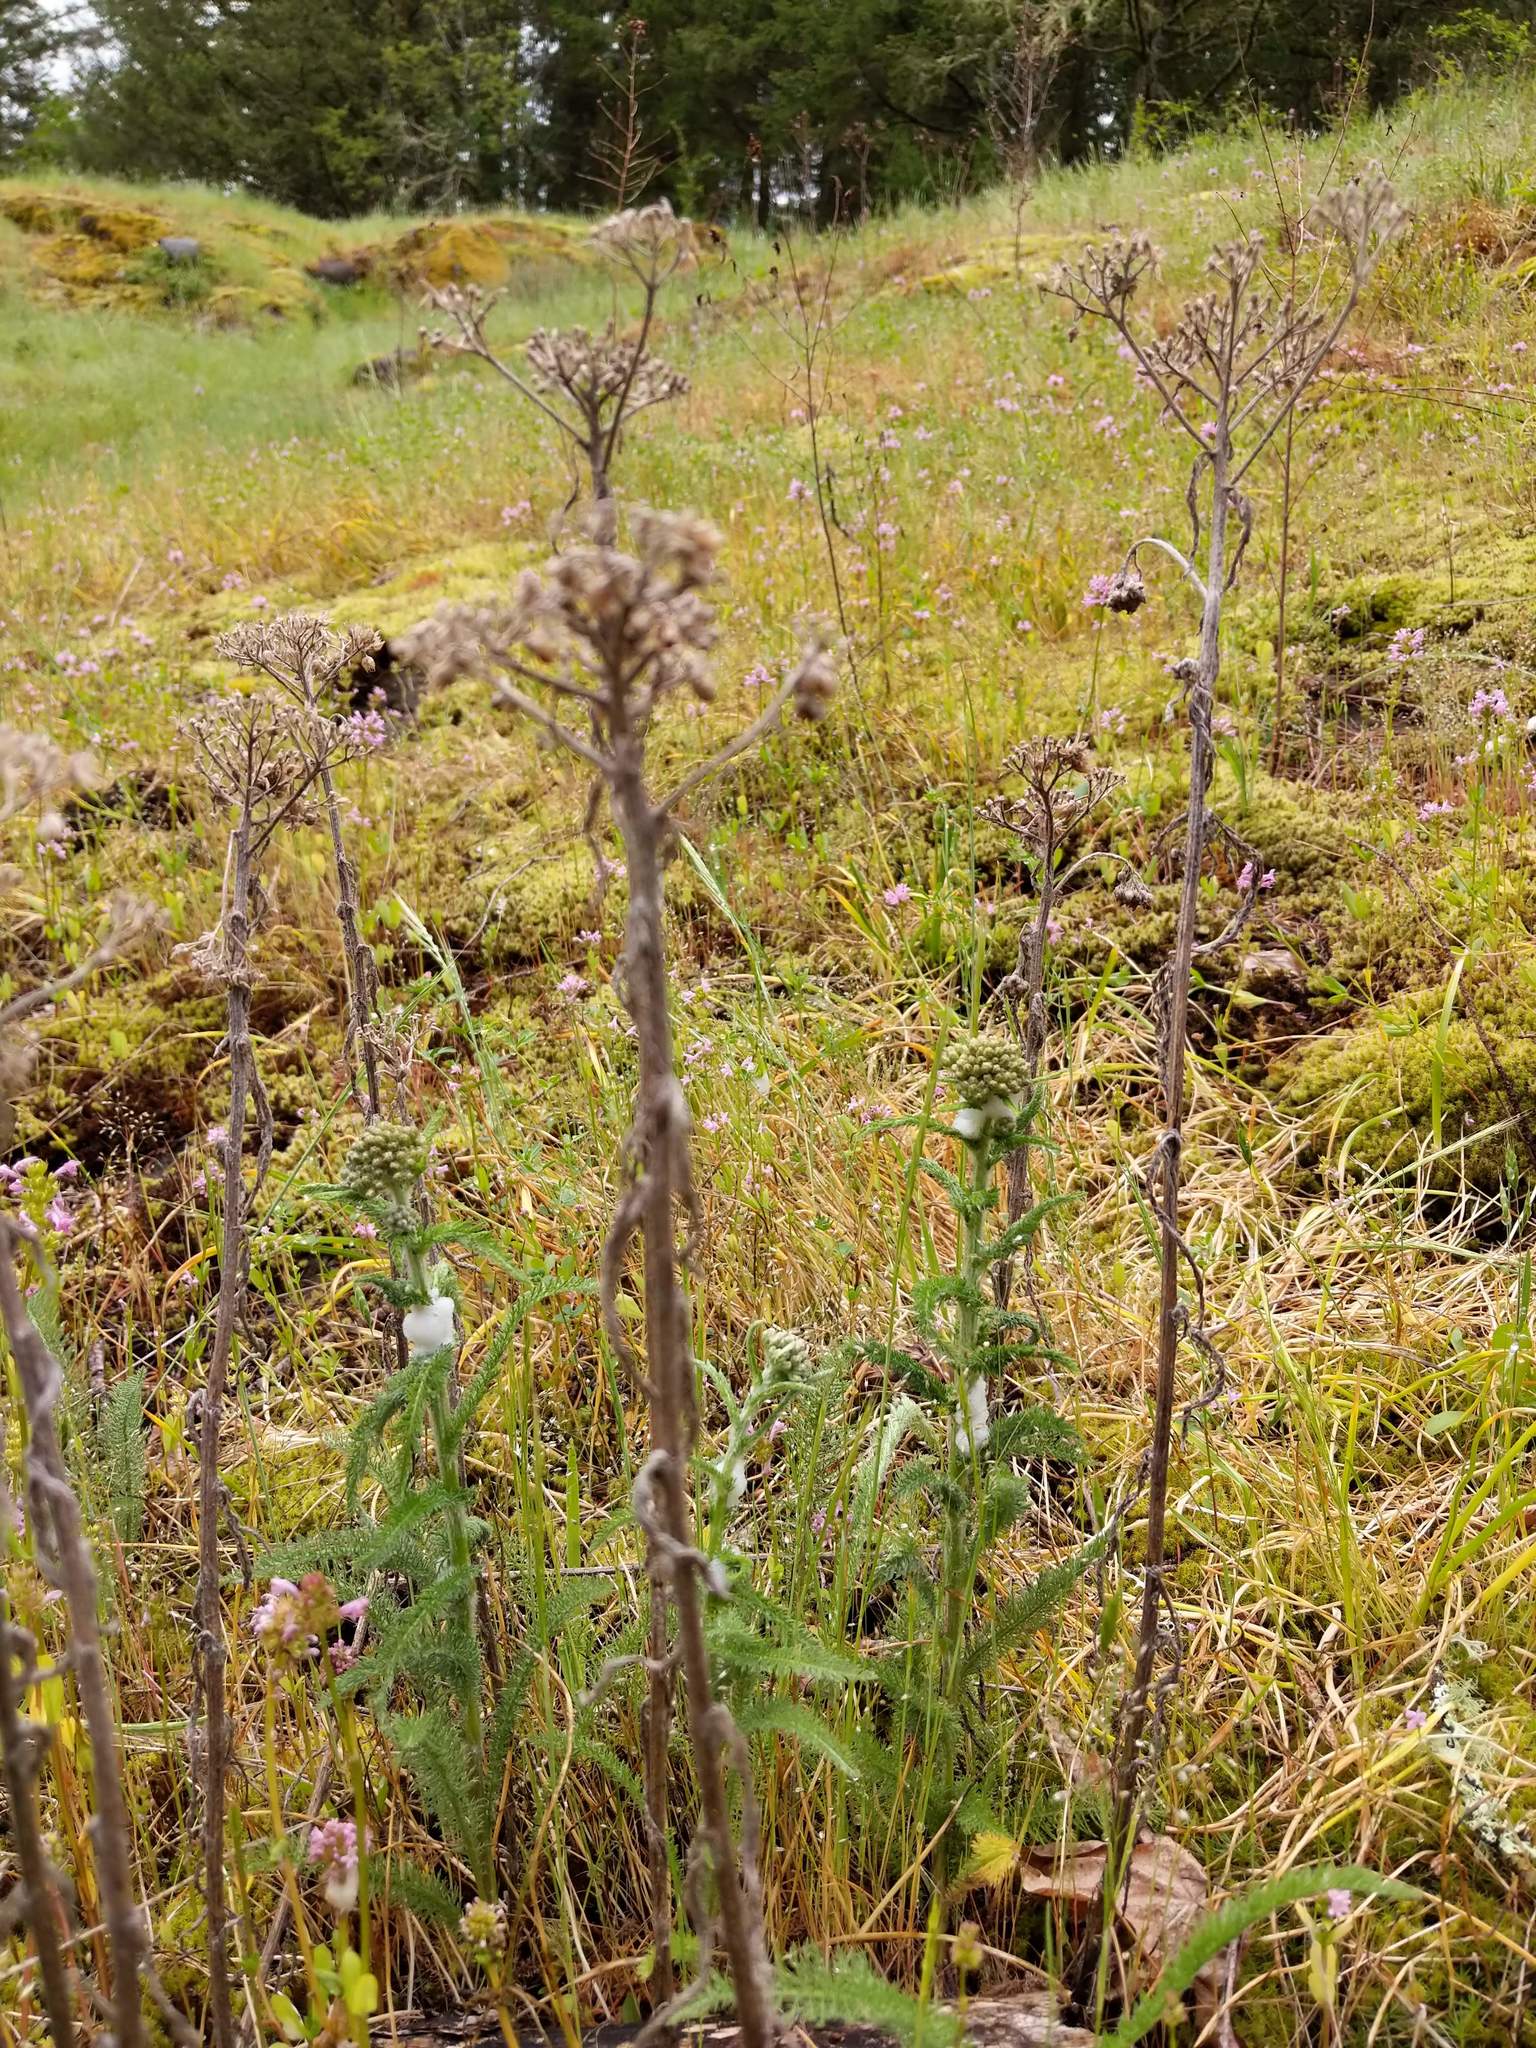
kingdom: Plantae
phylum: Tracheophyta
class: Magnoliopsida
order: Asterales
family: Asteraceae
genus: Achillea
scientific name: Achillea millefolium
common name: Yarrow
